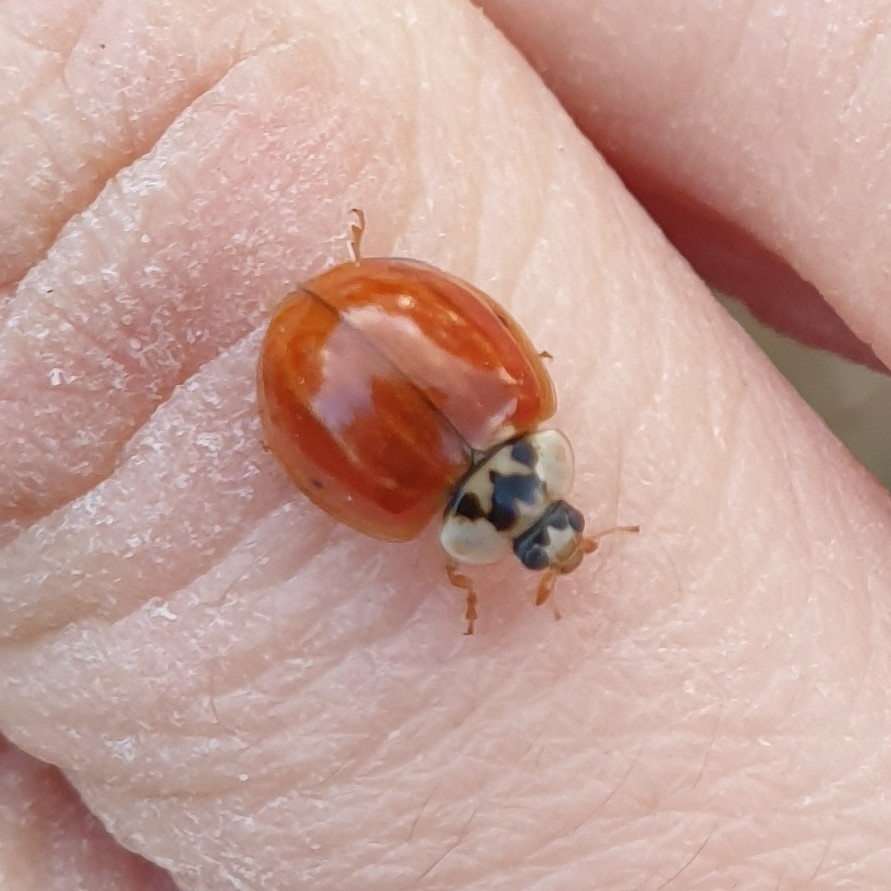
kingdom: Animalia
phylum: Arthropoda
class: Insecta
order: Coleoptera
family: Coccinellidae
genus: Harmonia
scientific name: Harmonia axyridis
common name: Harlequin ladybird
